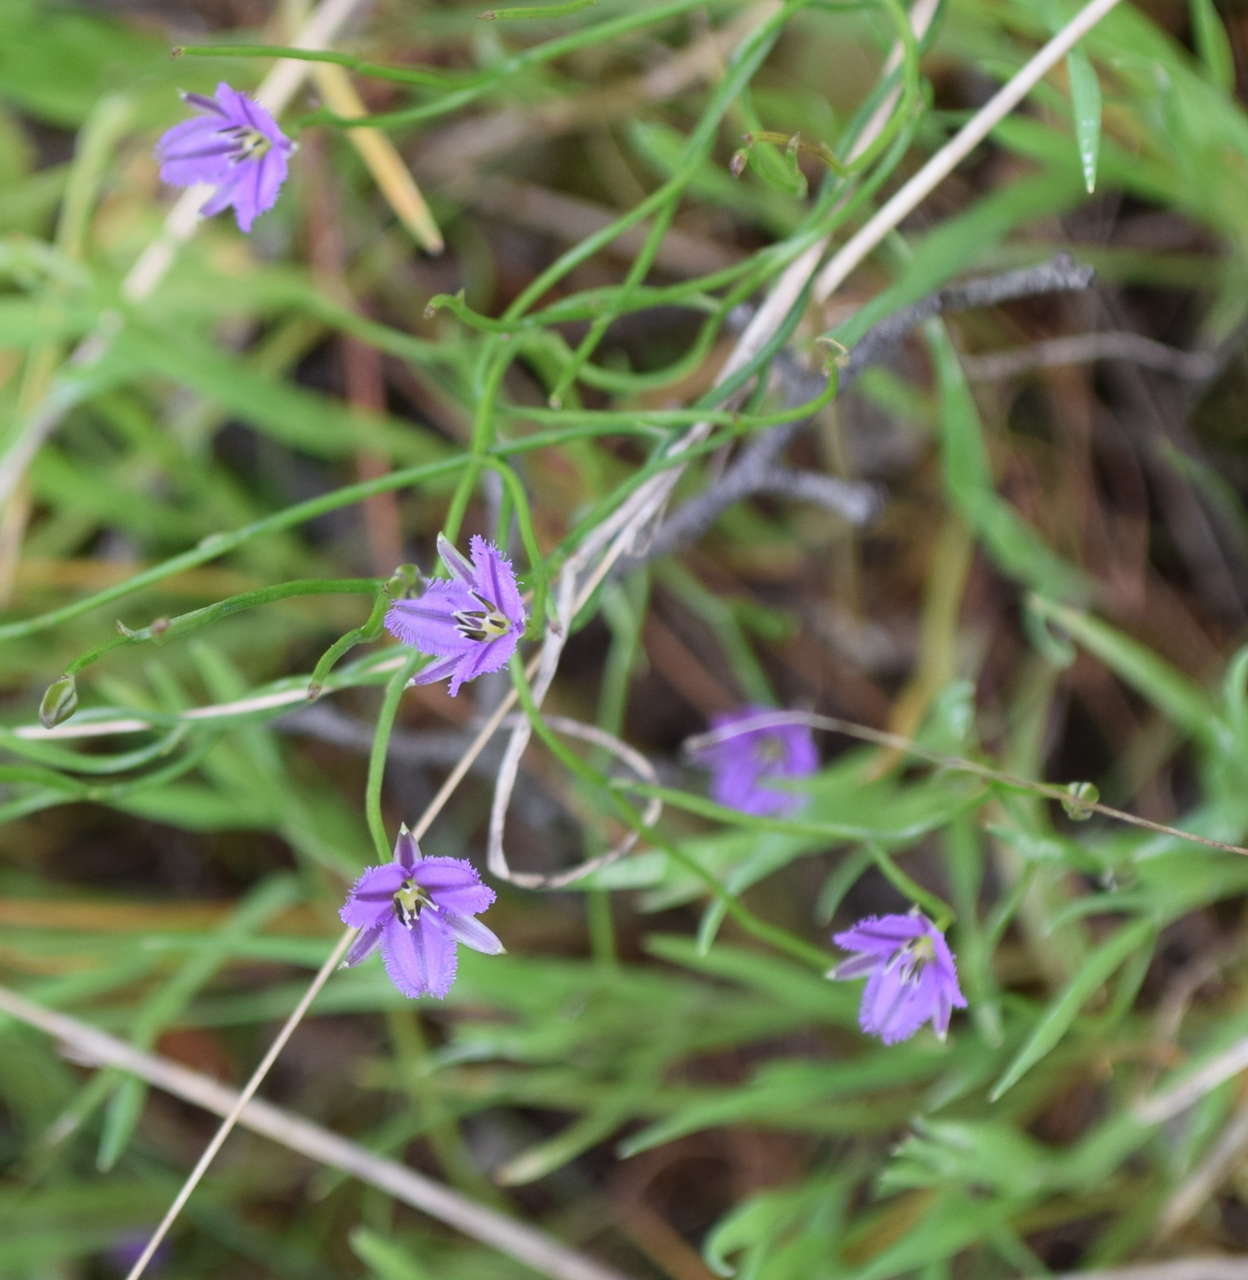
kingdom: Plantae
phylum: Tracheophyta
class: Liliopsida
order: Asparagales
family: Asparagaceae
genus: Thysanotus
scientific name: Thysanotus patersonii
